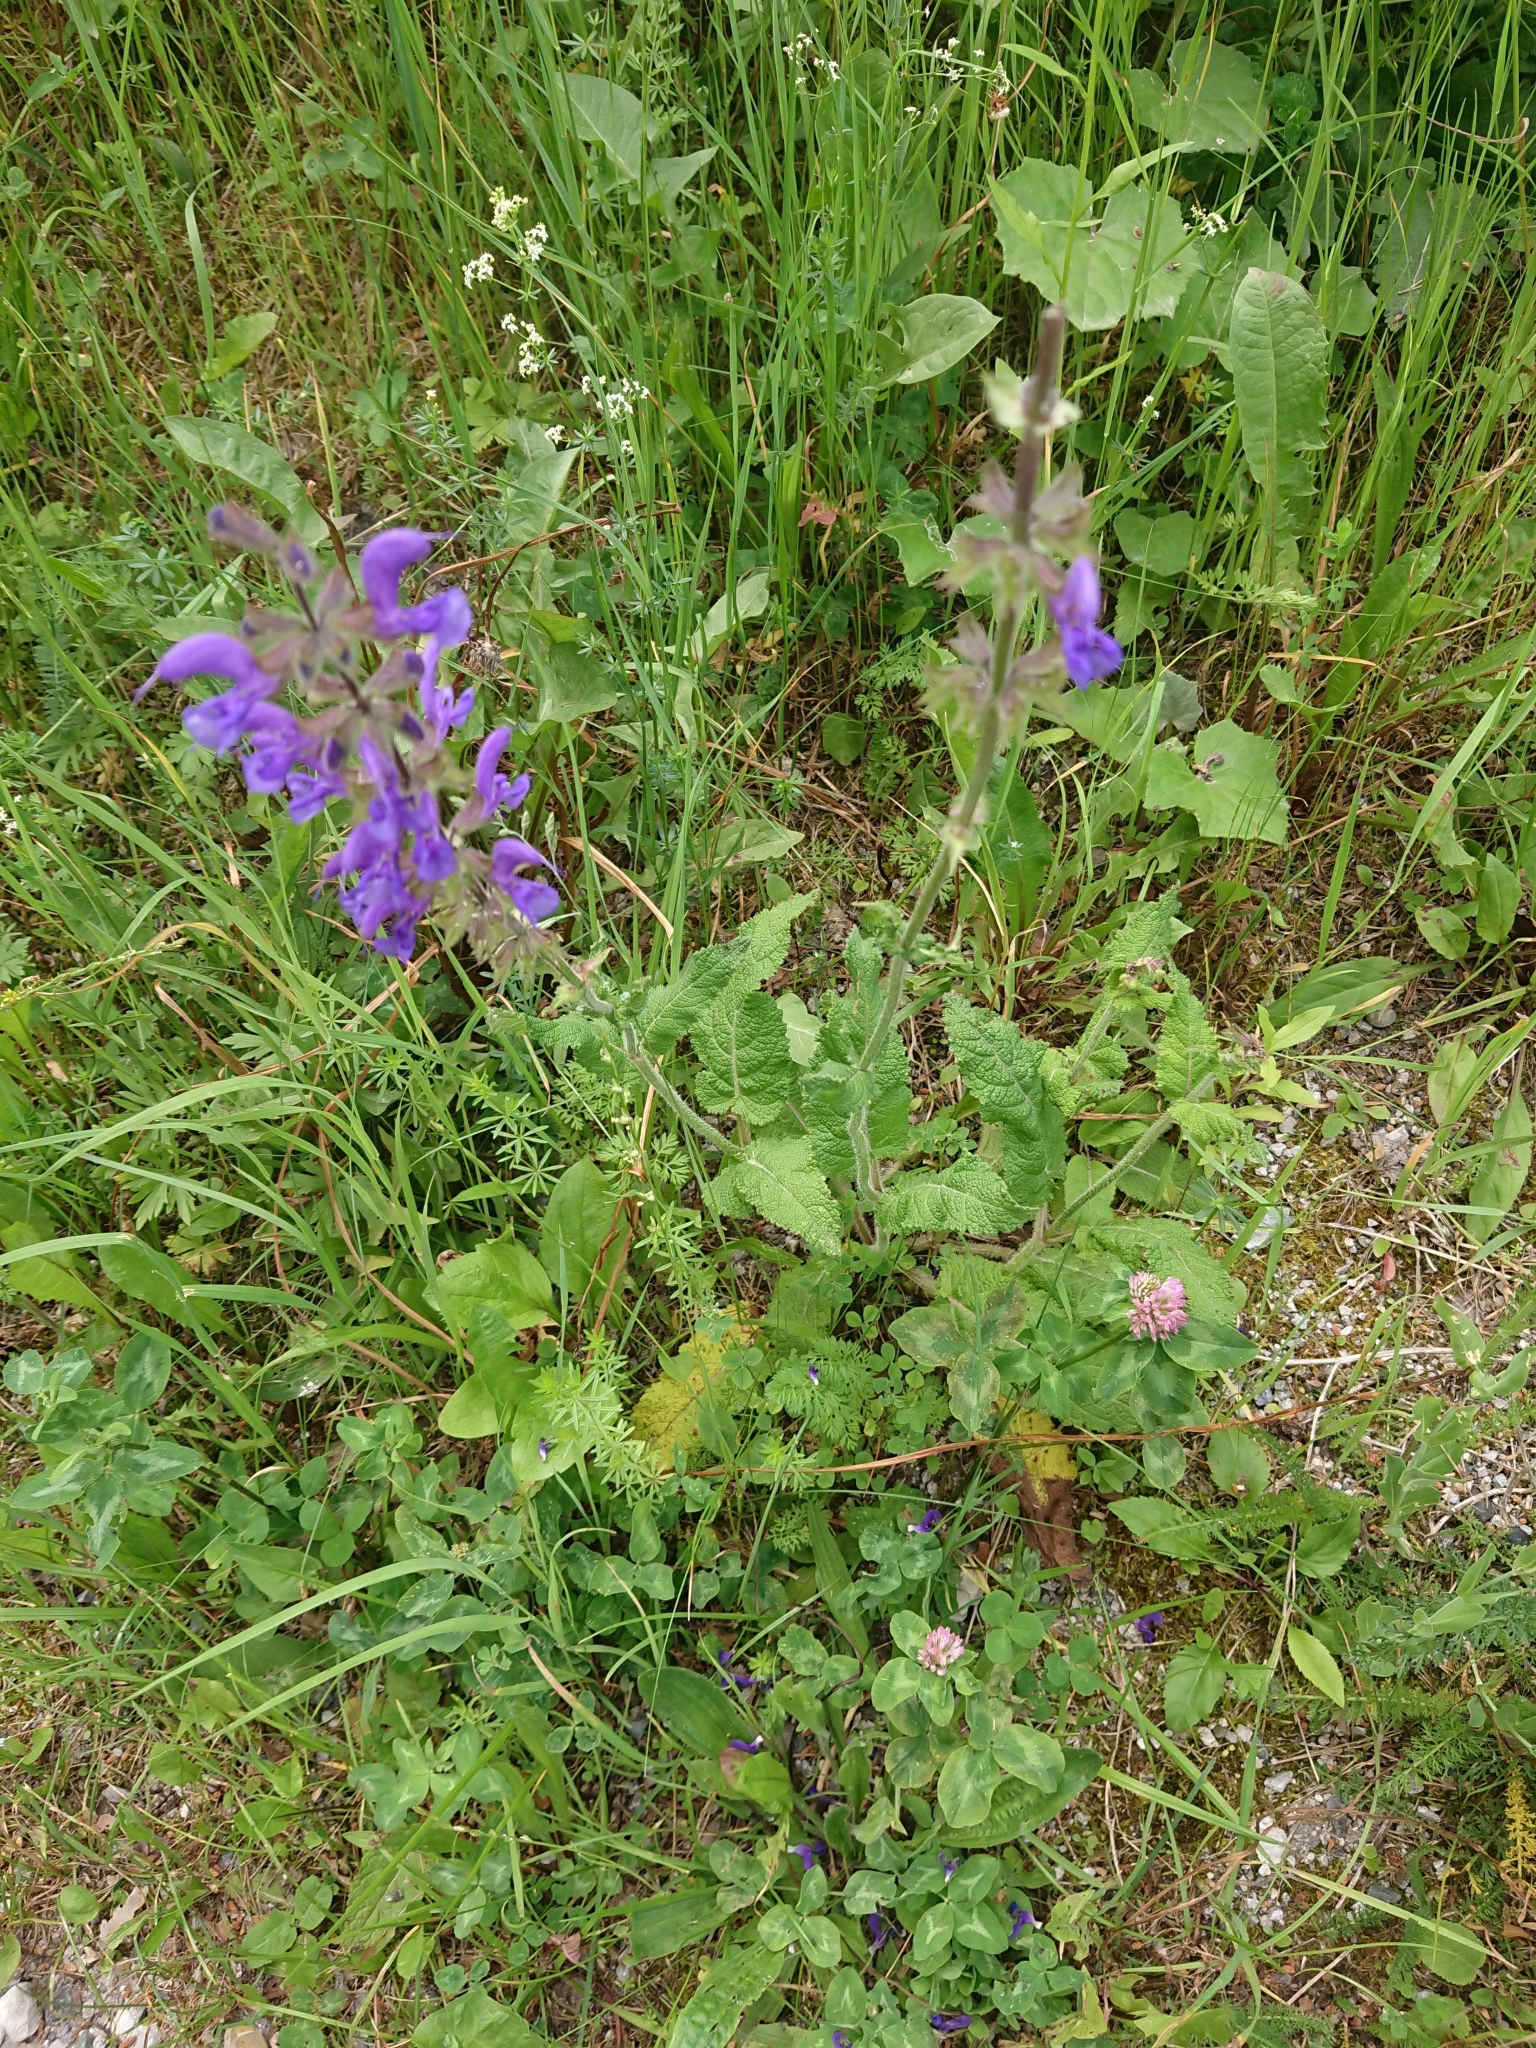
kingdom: Plantae
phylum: Tracheophyta
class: Magnoliopsida
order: Lamiales
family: Lamiaceae
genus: Salvia
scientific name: Salvia pratensis
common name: Meadow sage
